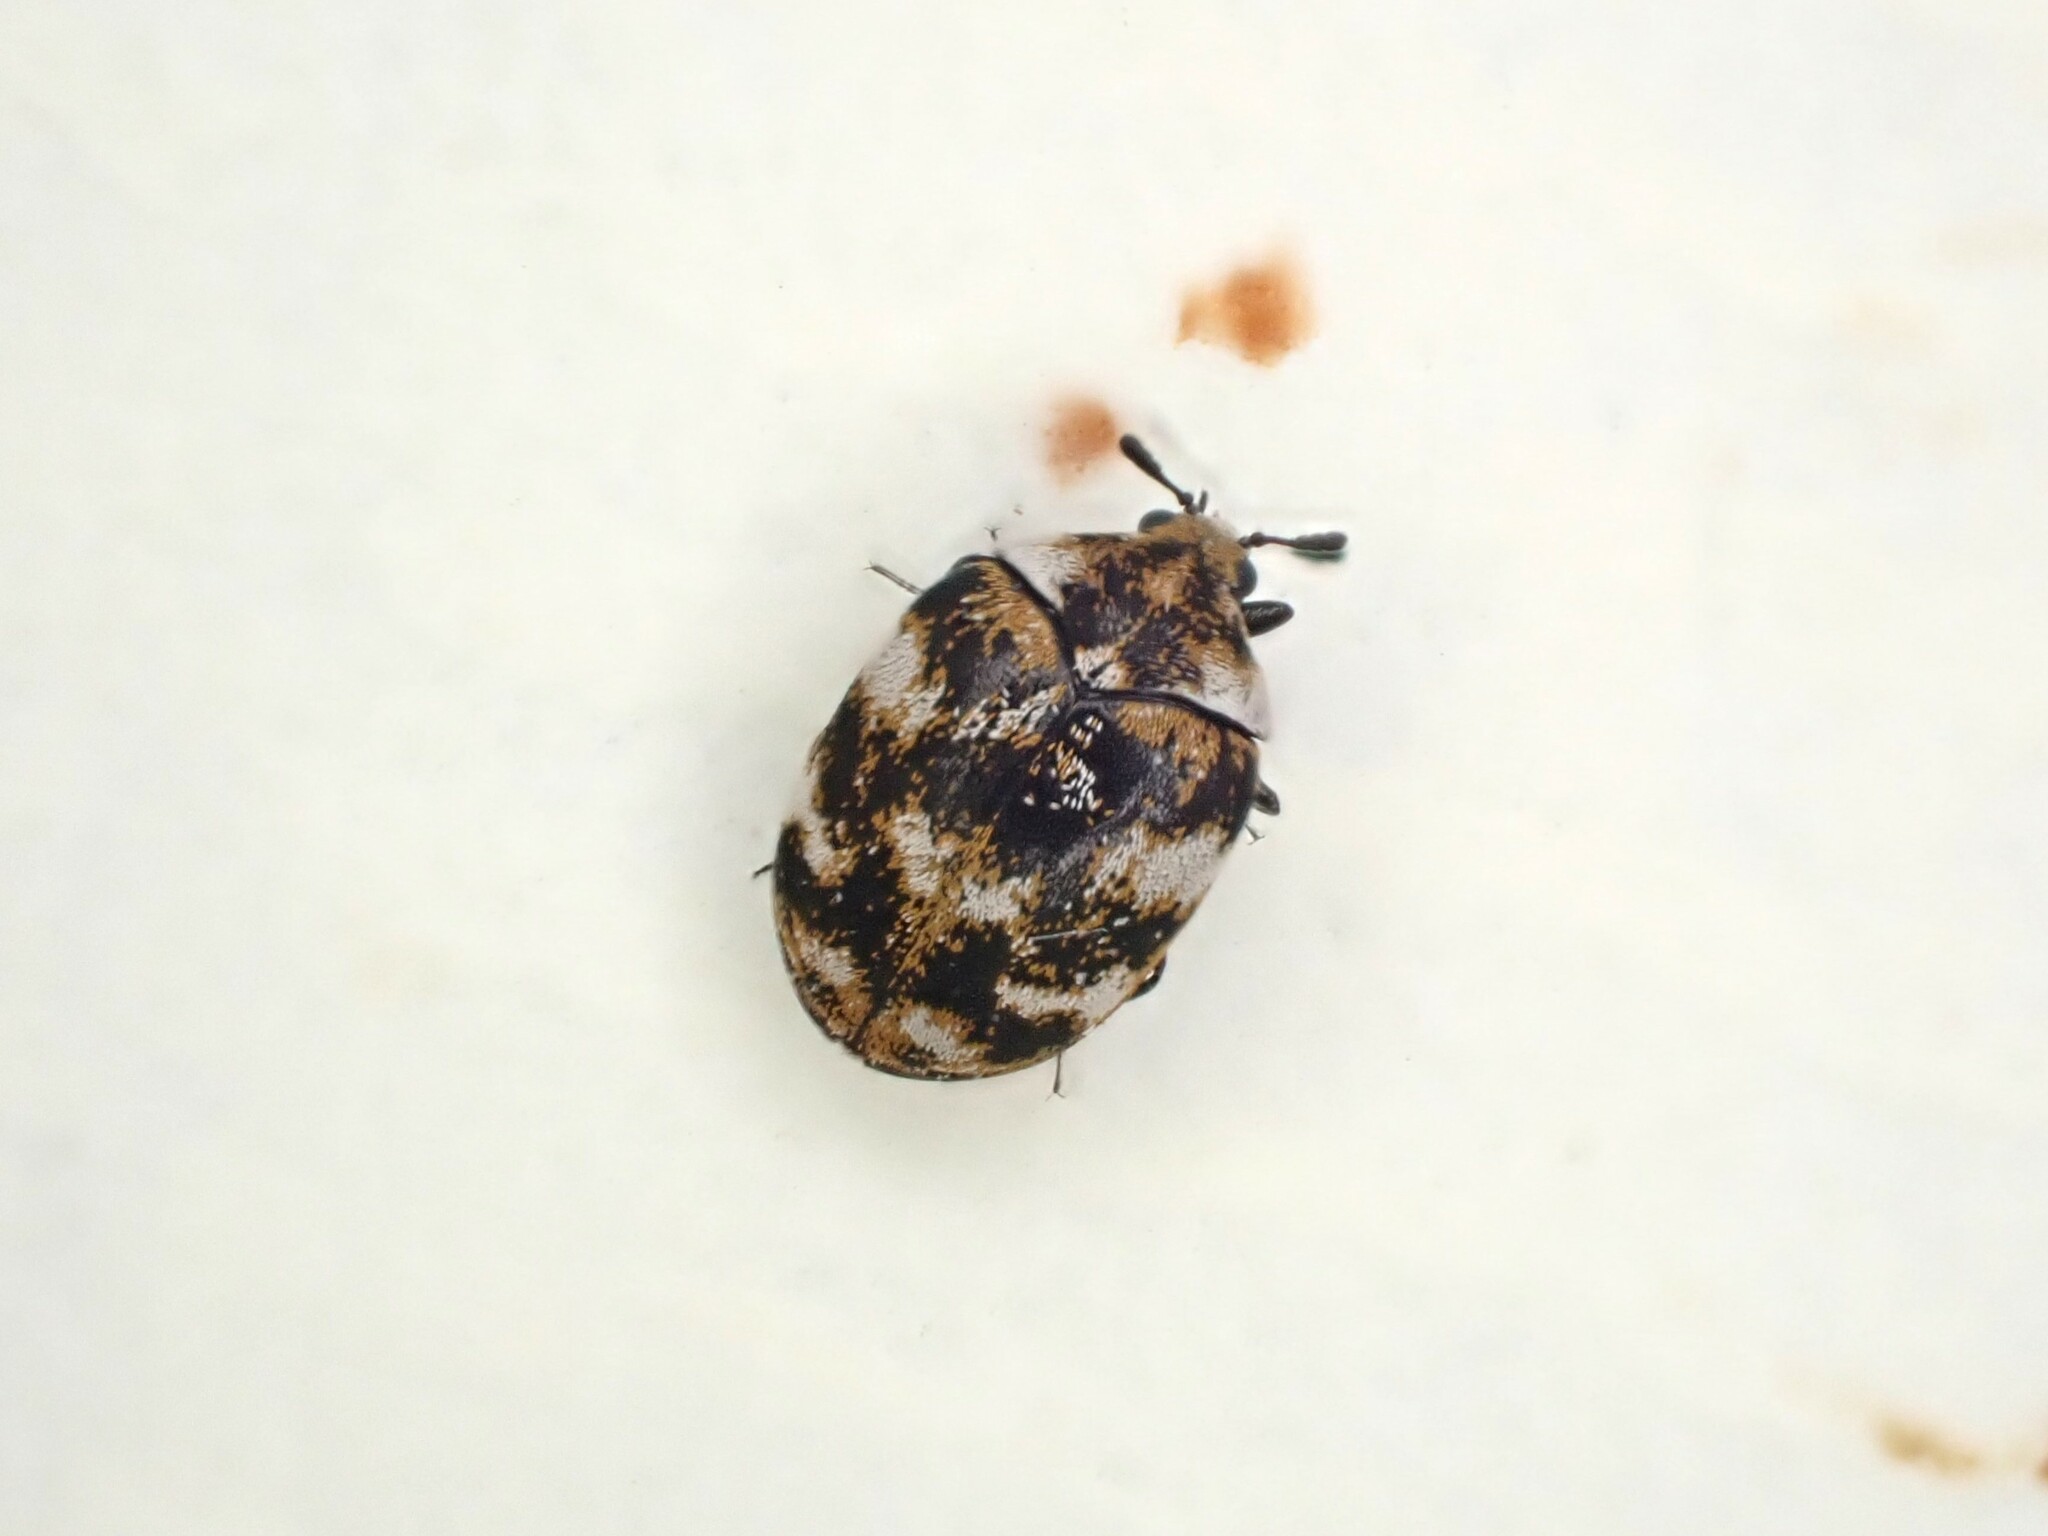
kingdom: Animalia
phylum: Arthropoda
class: Insecta
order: Coleoptera
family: Dermestidae
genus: Anthrenus
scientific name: Anthrenus verbasci
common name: Varied carpet beetle
